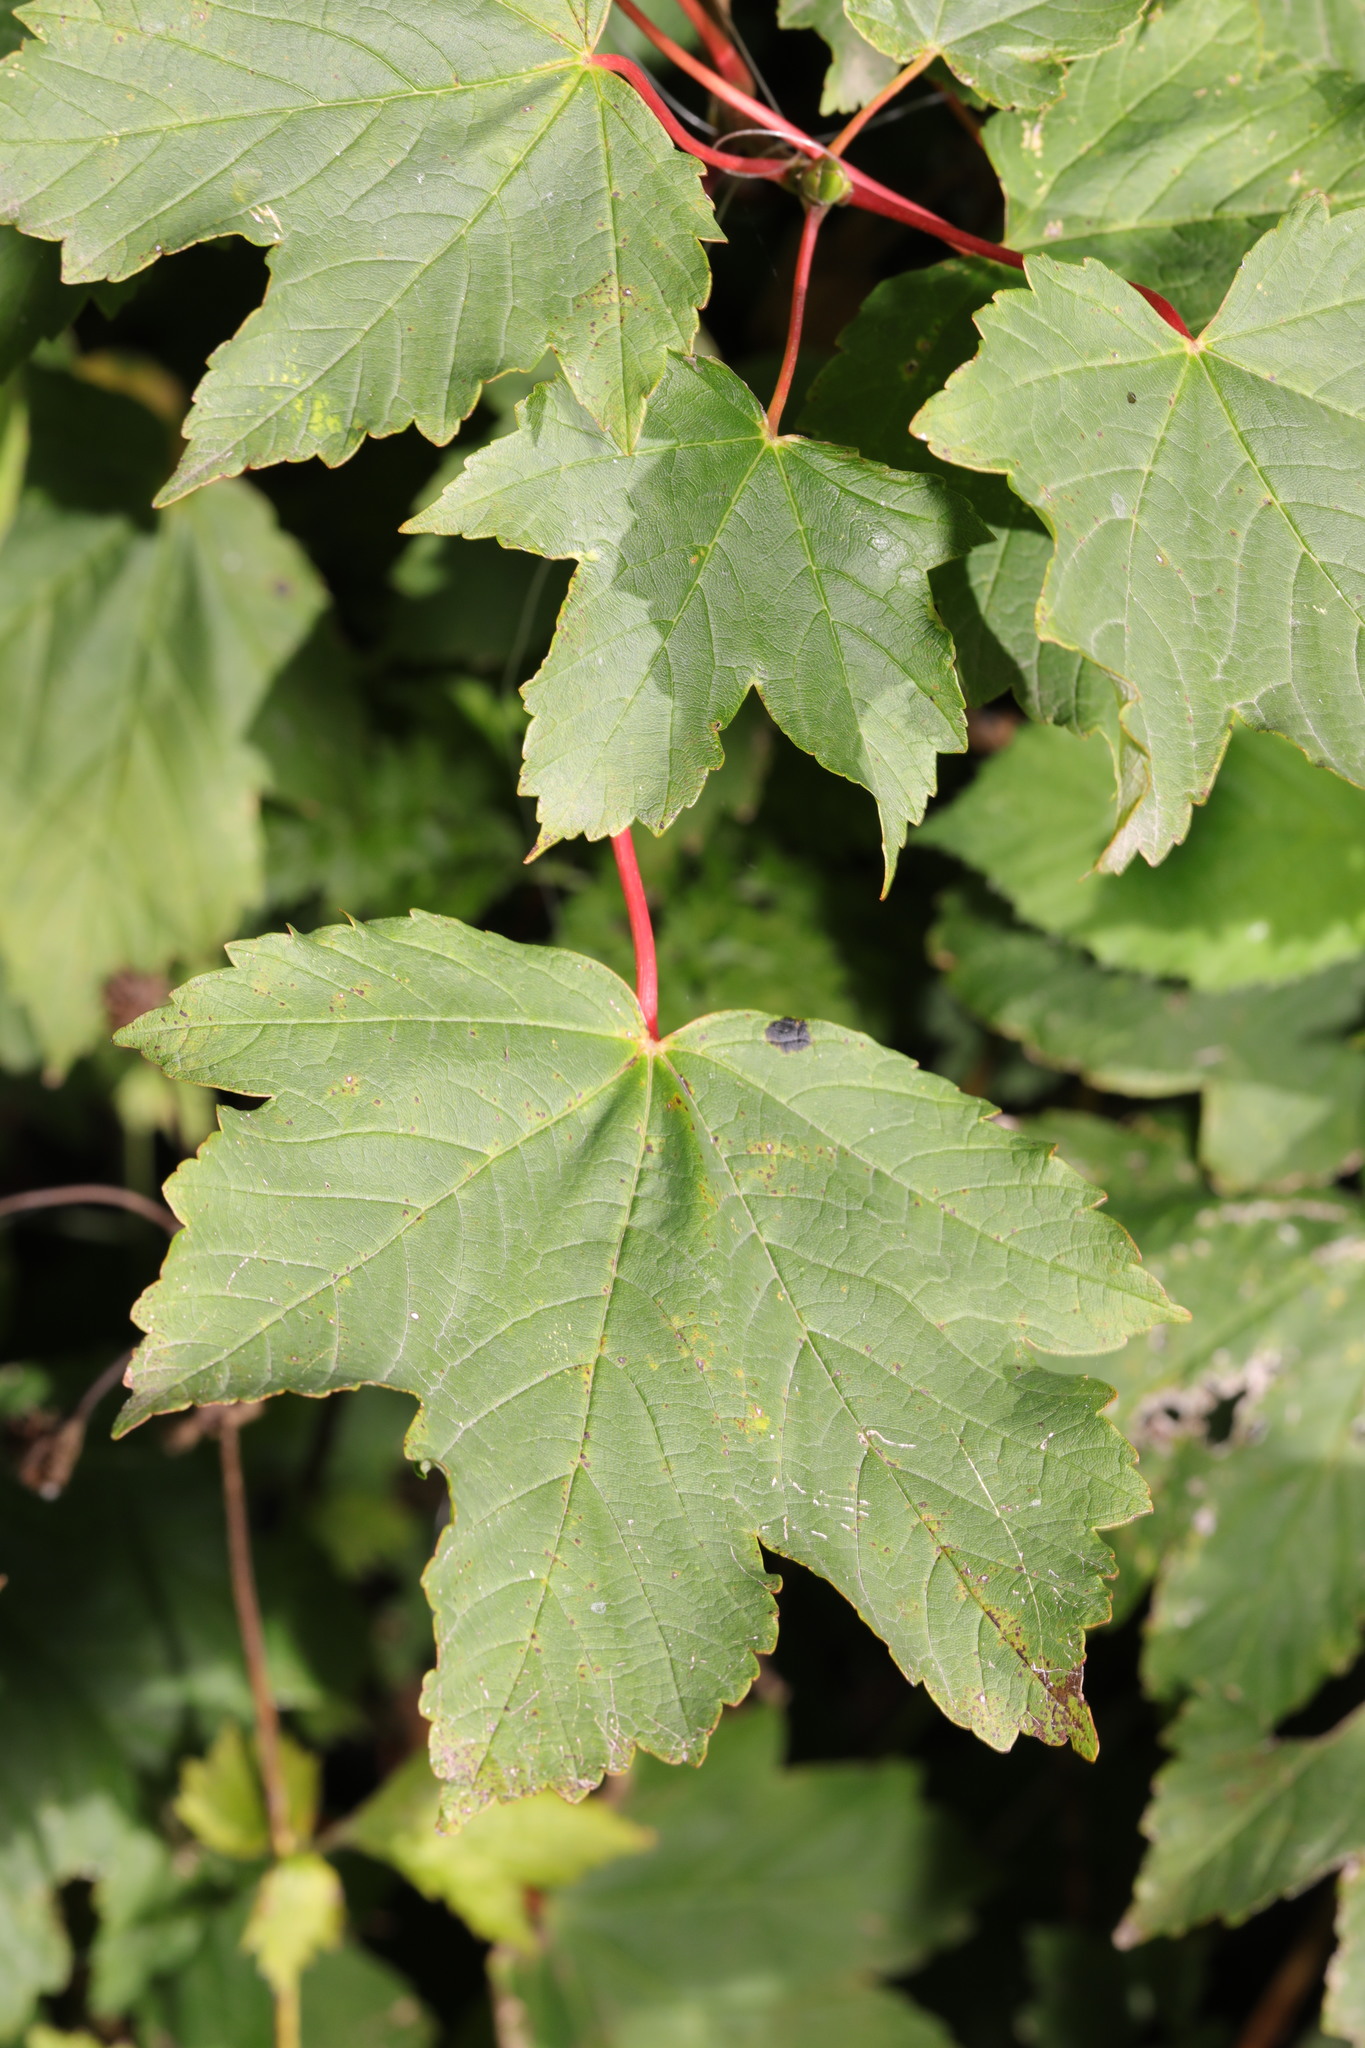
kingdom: Plantae
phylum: Tracheophyta
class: Magnoliopsida
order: Sapindales
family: Sapindaceae
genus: Acer
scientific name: Acer pseudoplatanus
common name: Sycamore
